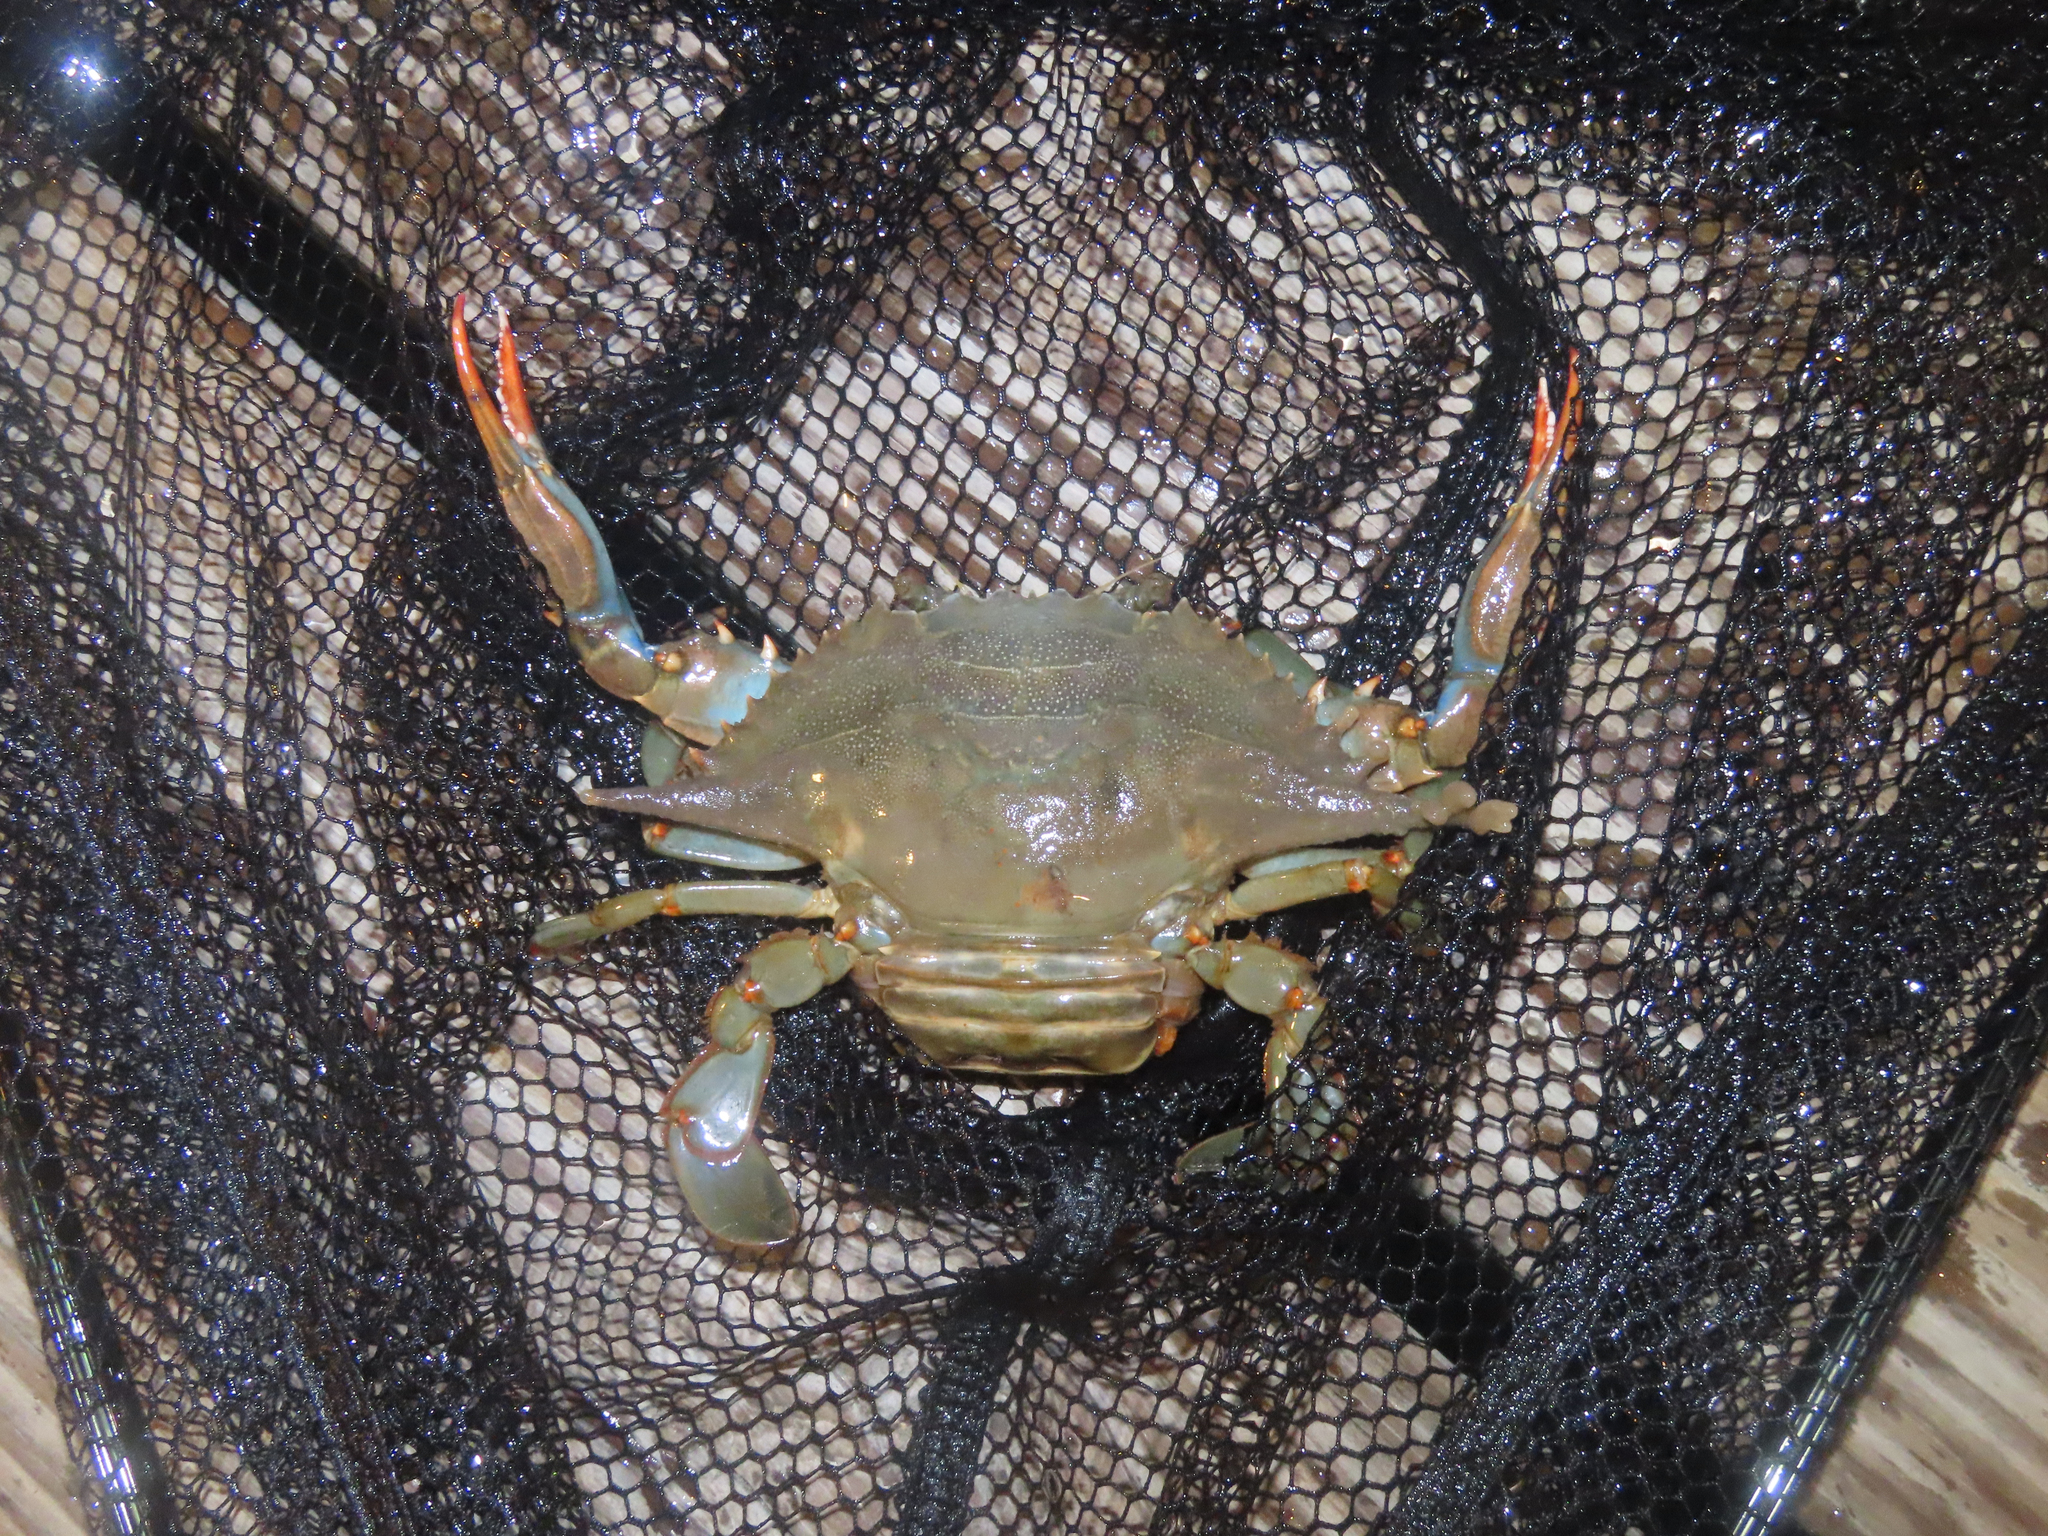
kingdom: Animalia
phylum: Arthropoda
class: Malacostraca
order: Decapoda
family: Portunidae
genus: Callinectes
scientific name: Callinectes sapidus
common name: Blue crab
